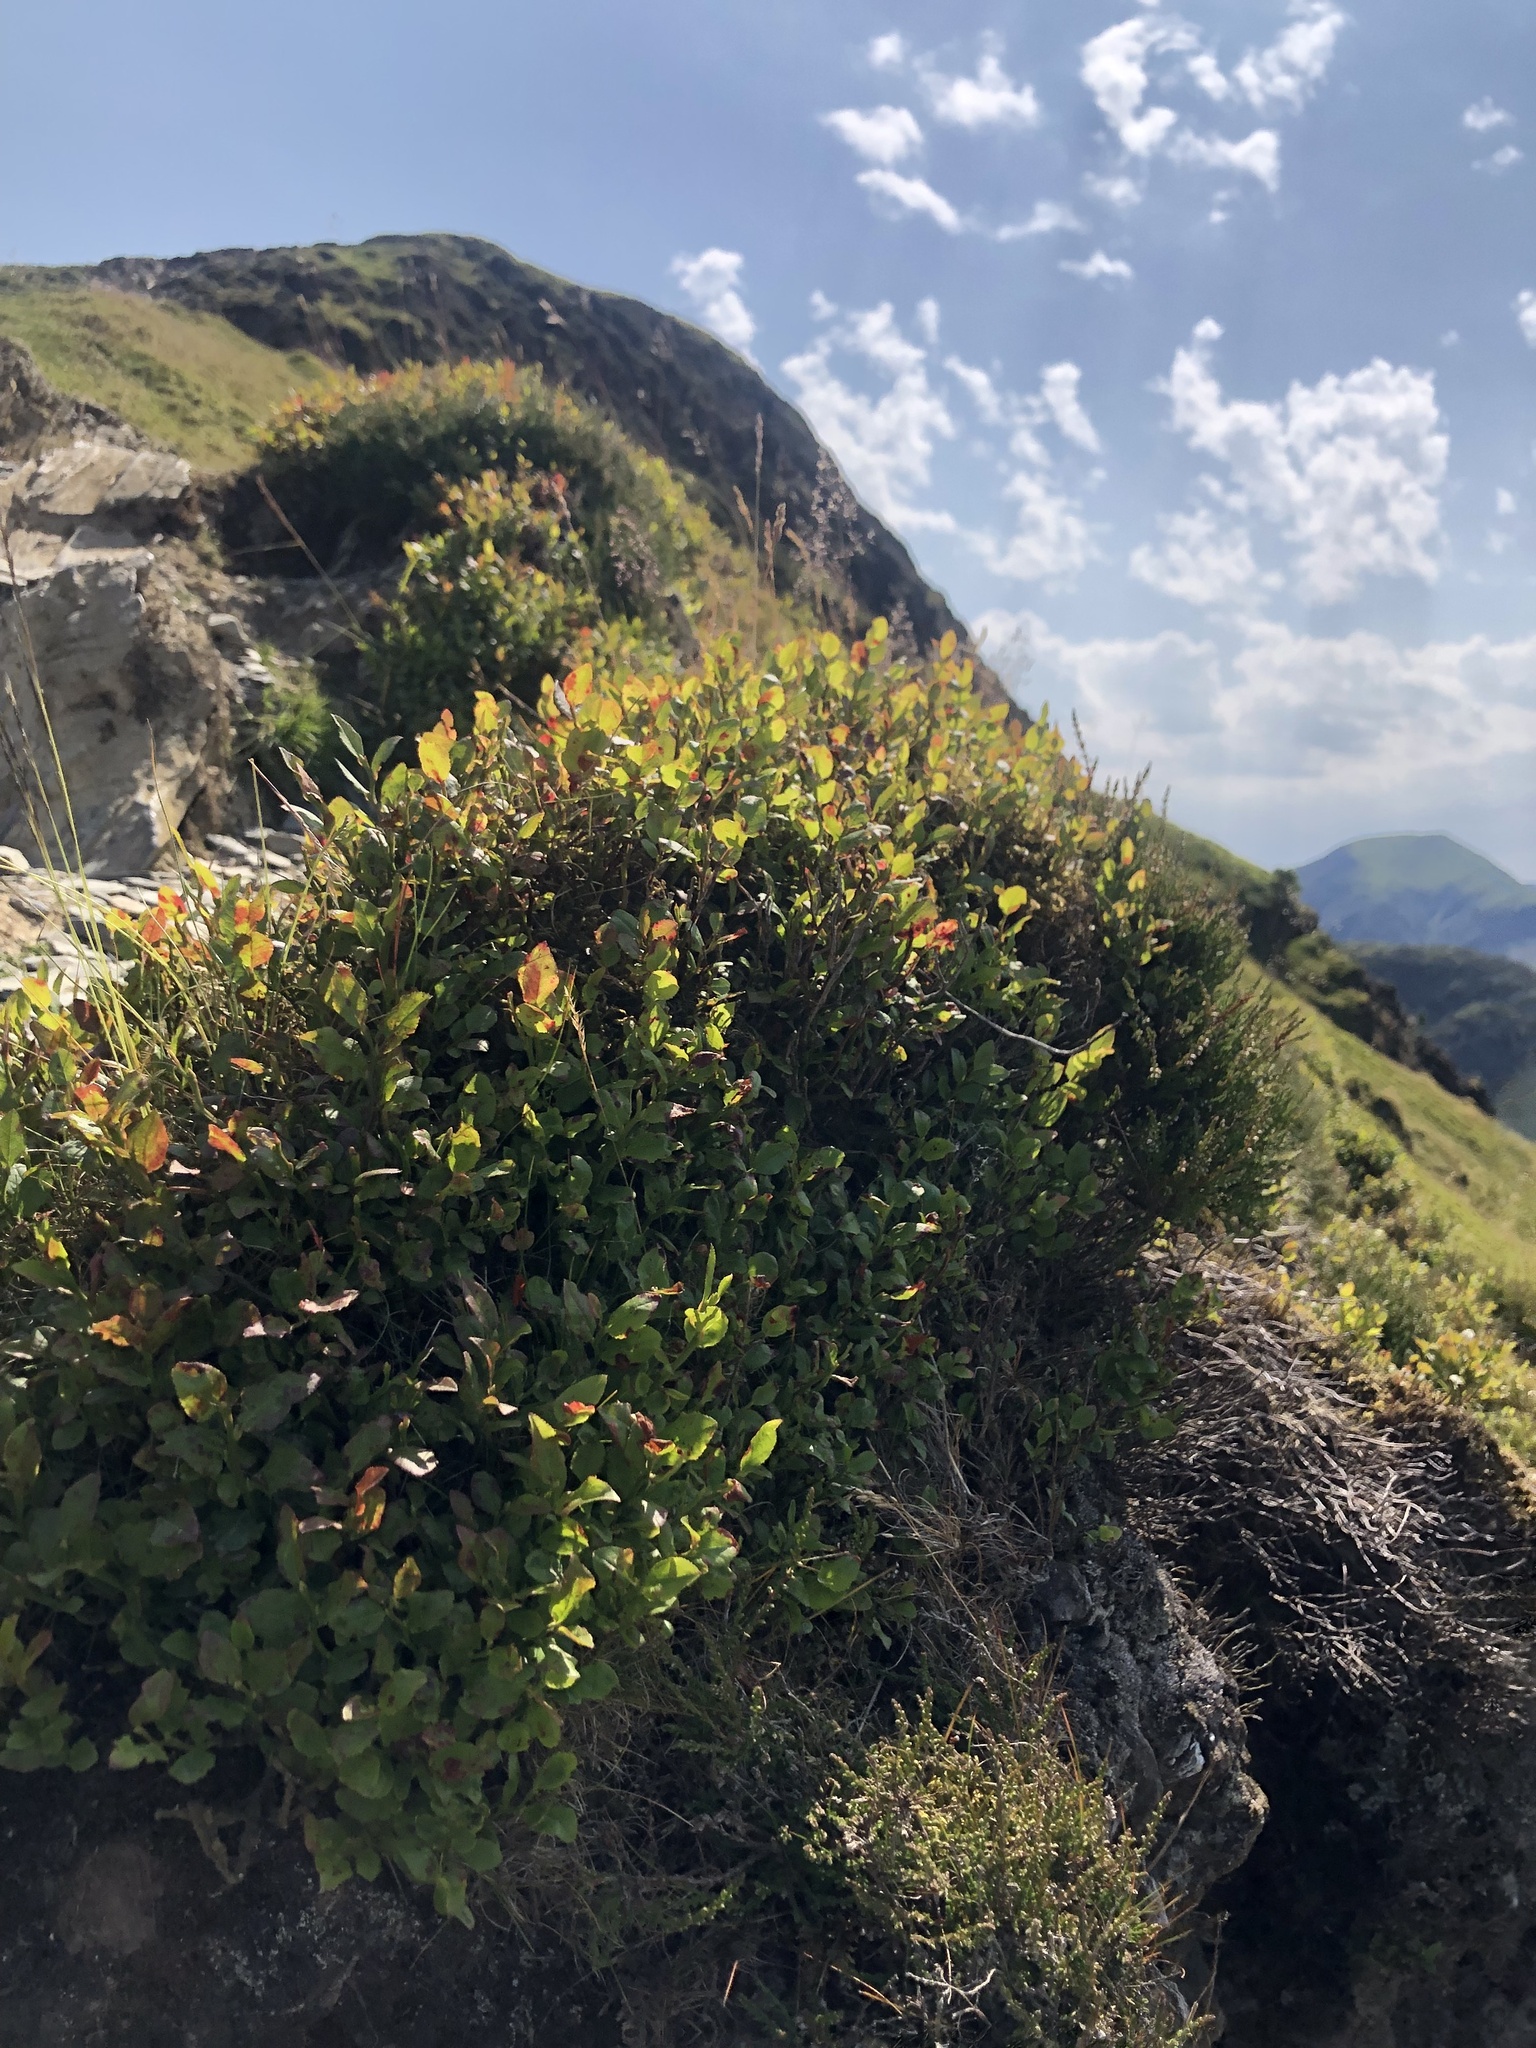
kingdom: Plantae
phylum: Tracheophyta
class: Magnoliopsida
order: Ericales
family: Ericaceae
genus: Vaccinium
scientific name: Vaccinium myrtillus
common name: Bilberry
